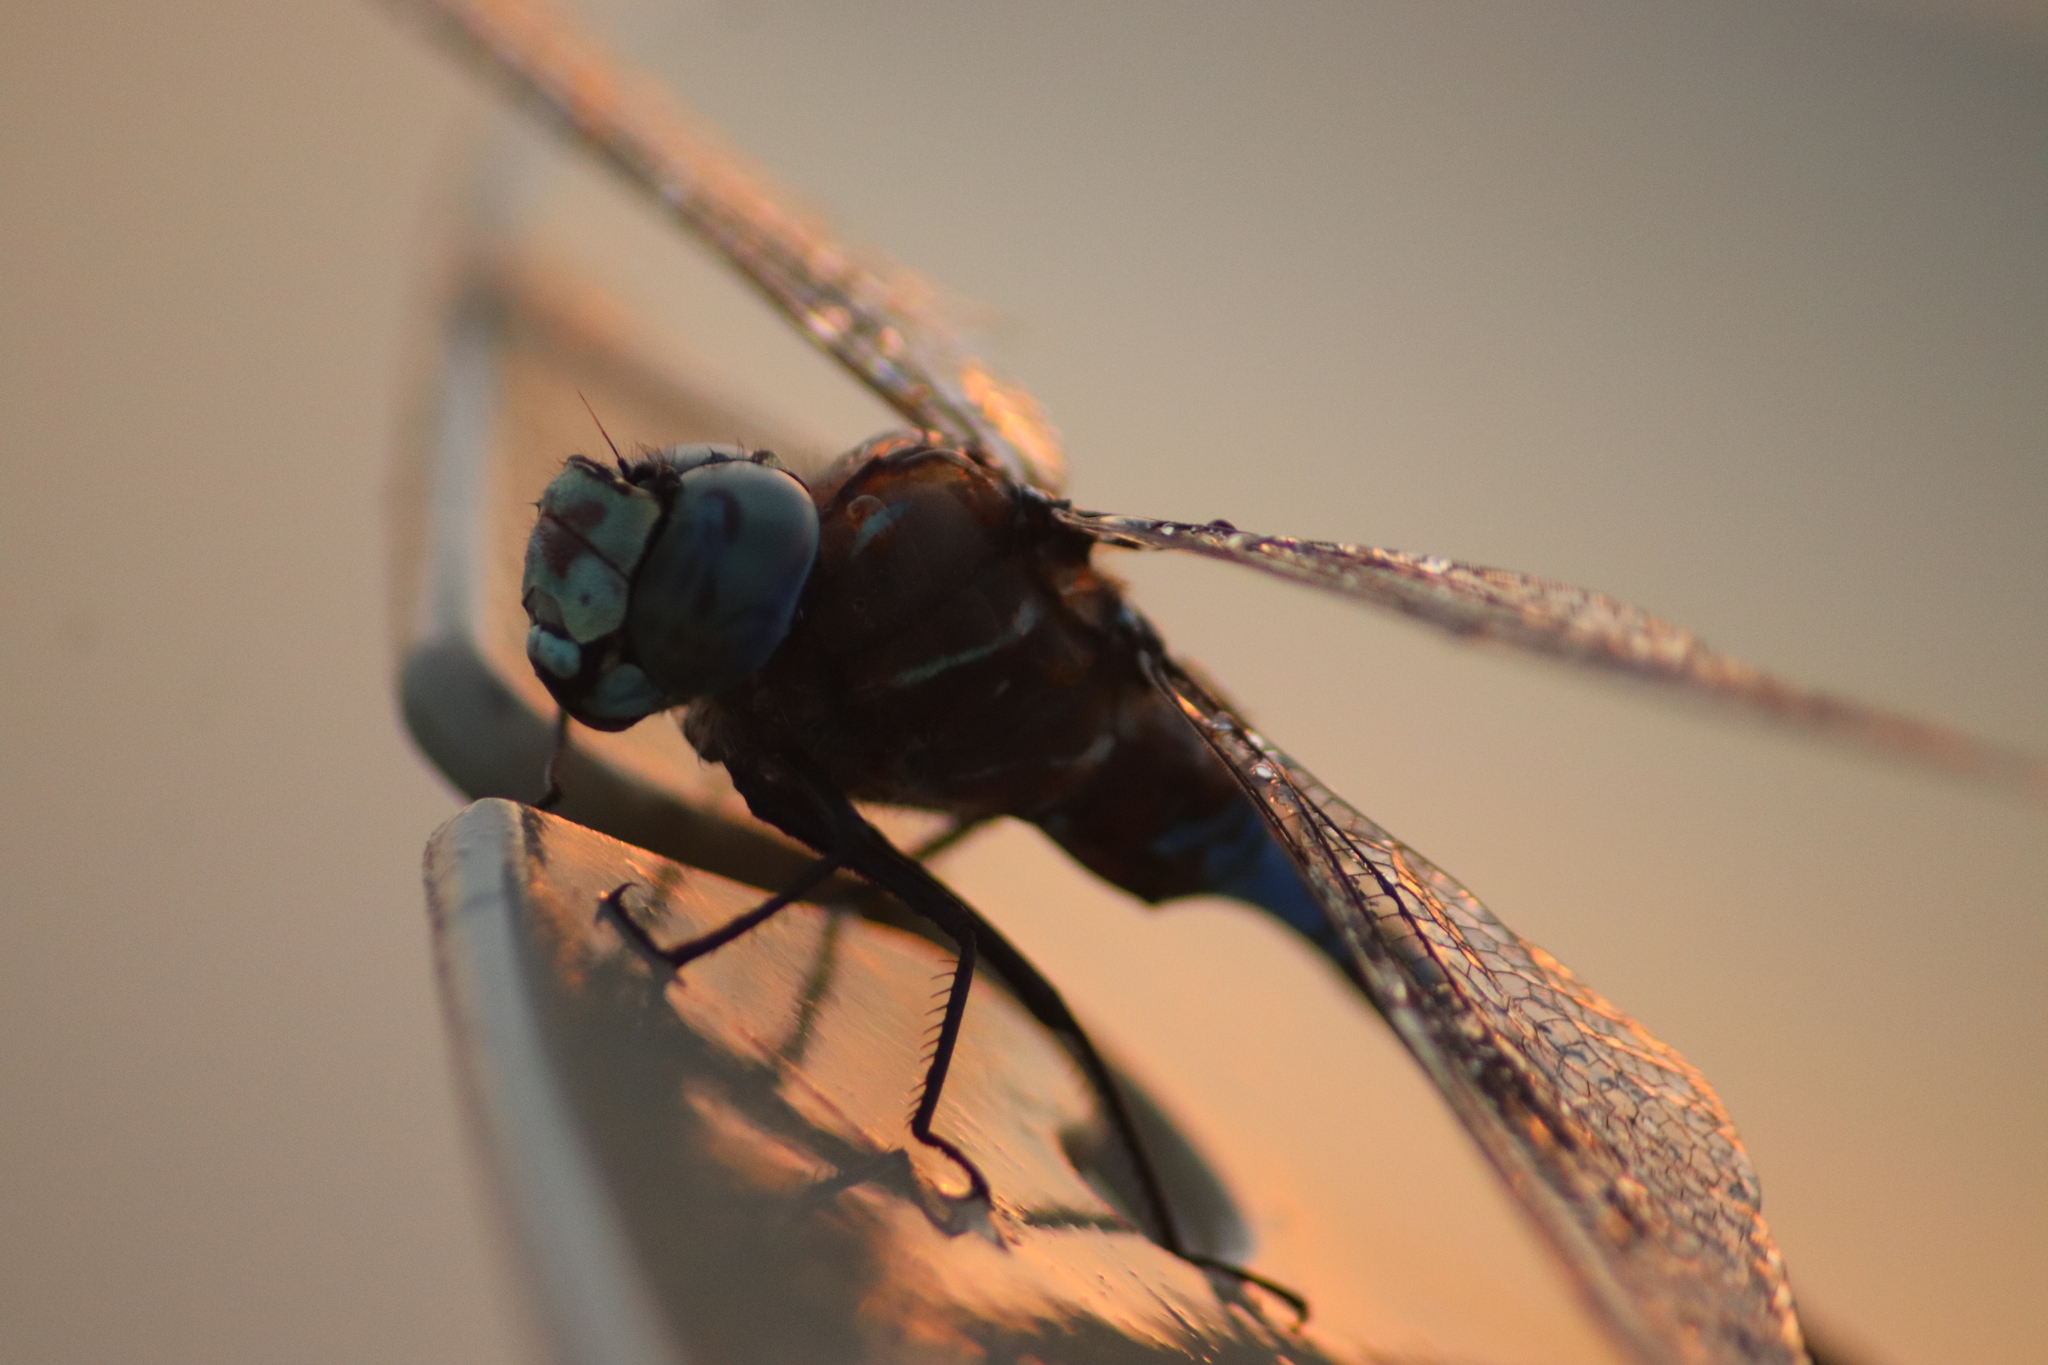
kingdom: Animalia
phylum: Arthropoda
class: Insecta
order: Odonata
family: Aeshnidae
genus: Aeshna
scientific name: Aeshna interrupta
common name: Variable darner
